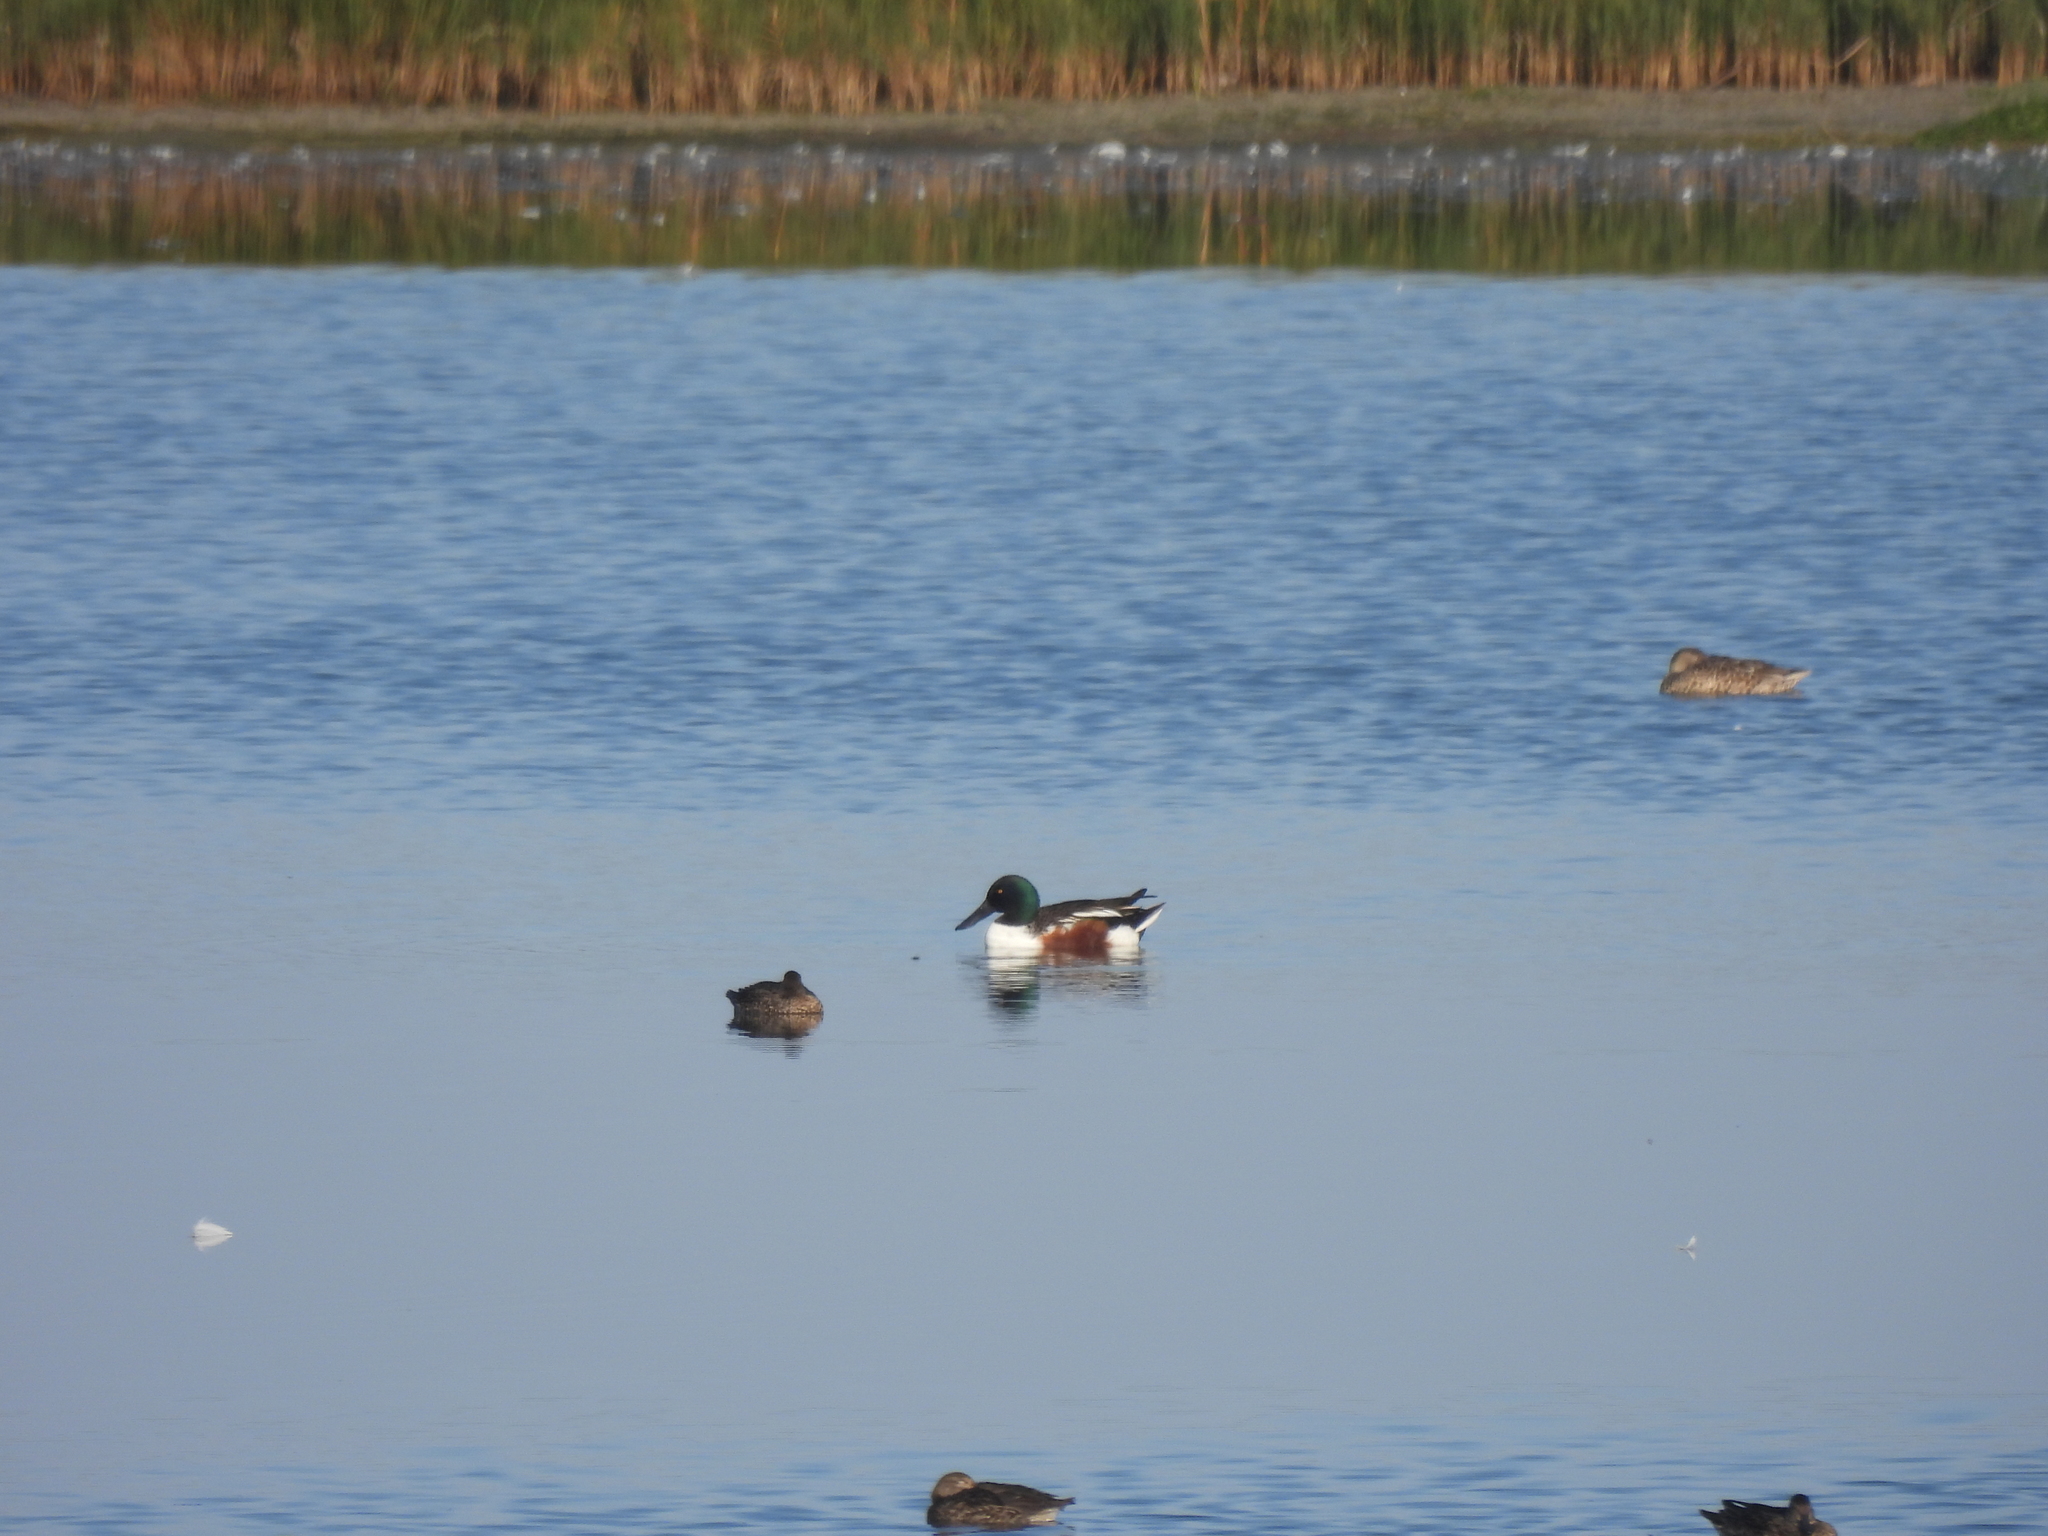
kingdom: Animalia
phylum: Chordata
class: Aves
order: Anseriformes
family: Anatidae
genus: Spatula
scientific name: Spatula clypeata
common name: Northern shoveler
